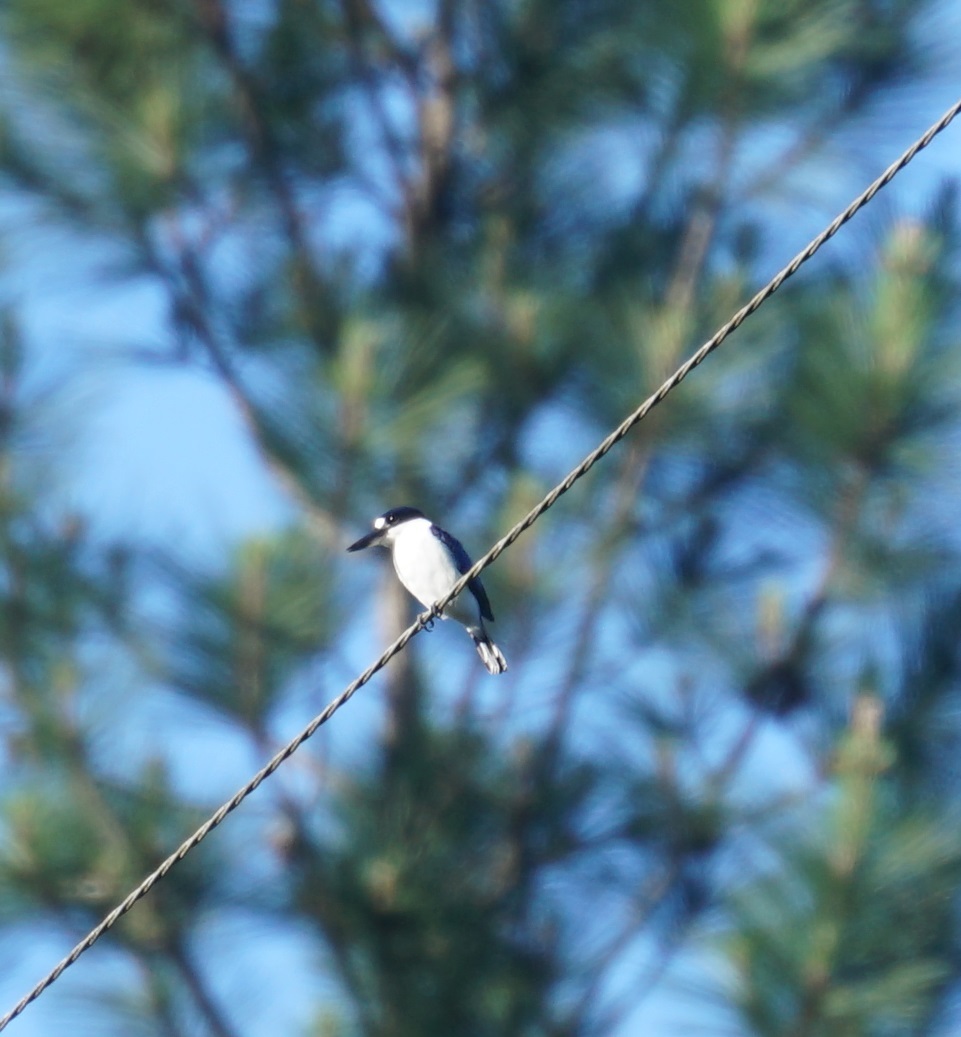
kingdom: Animalia
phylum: Chordata
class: Aves
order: Coraciiformes
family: Alcedinidae
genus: Todiramphus
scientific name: Todiramphus macleayii
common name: Forest kingfisher
